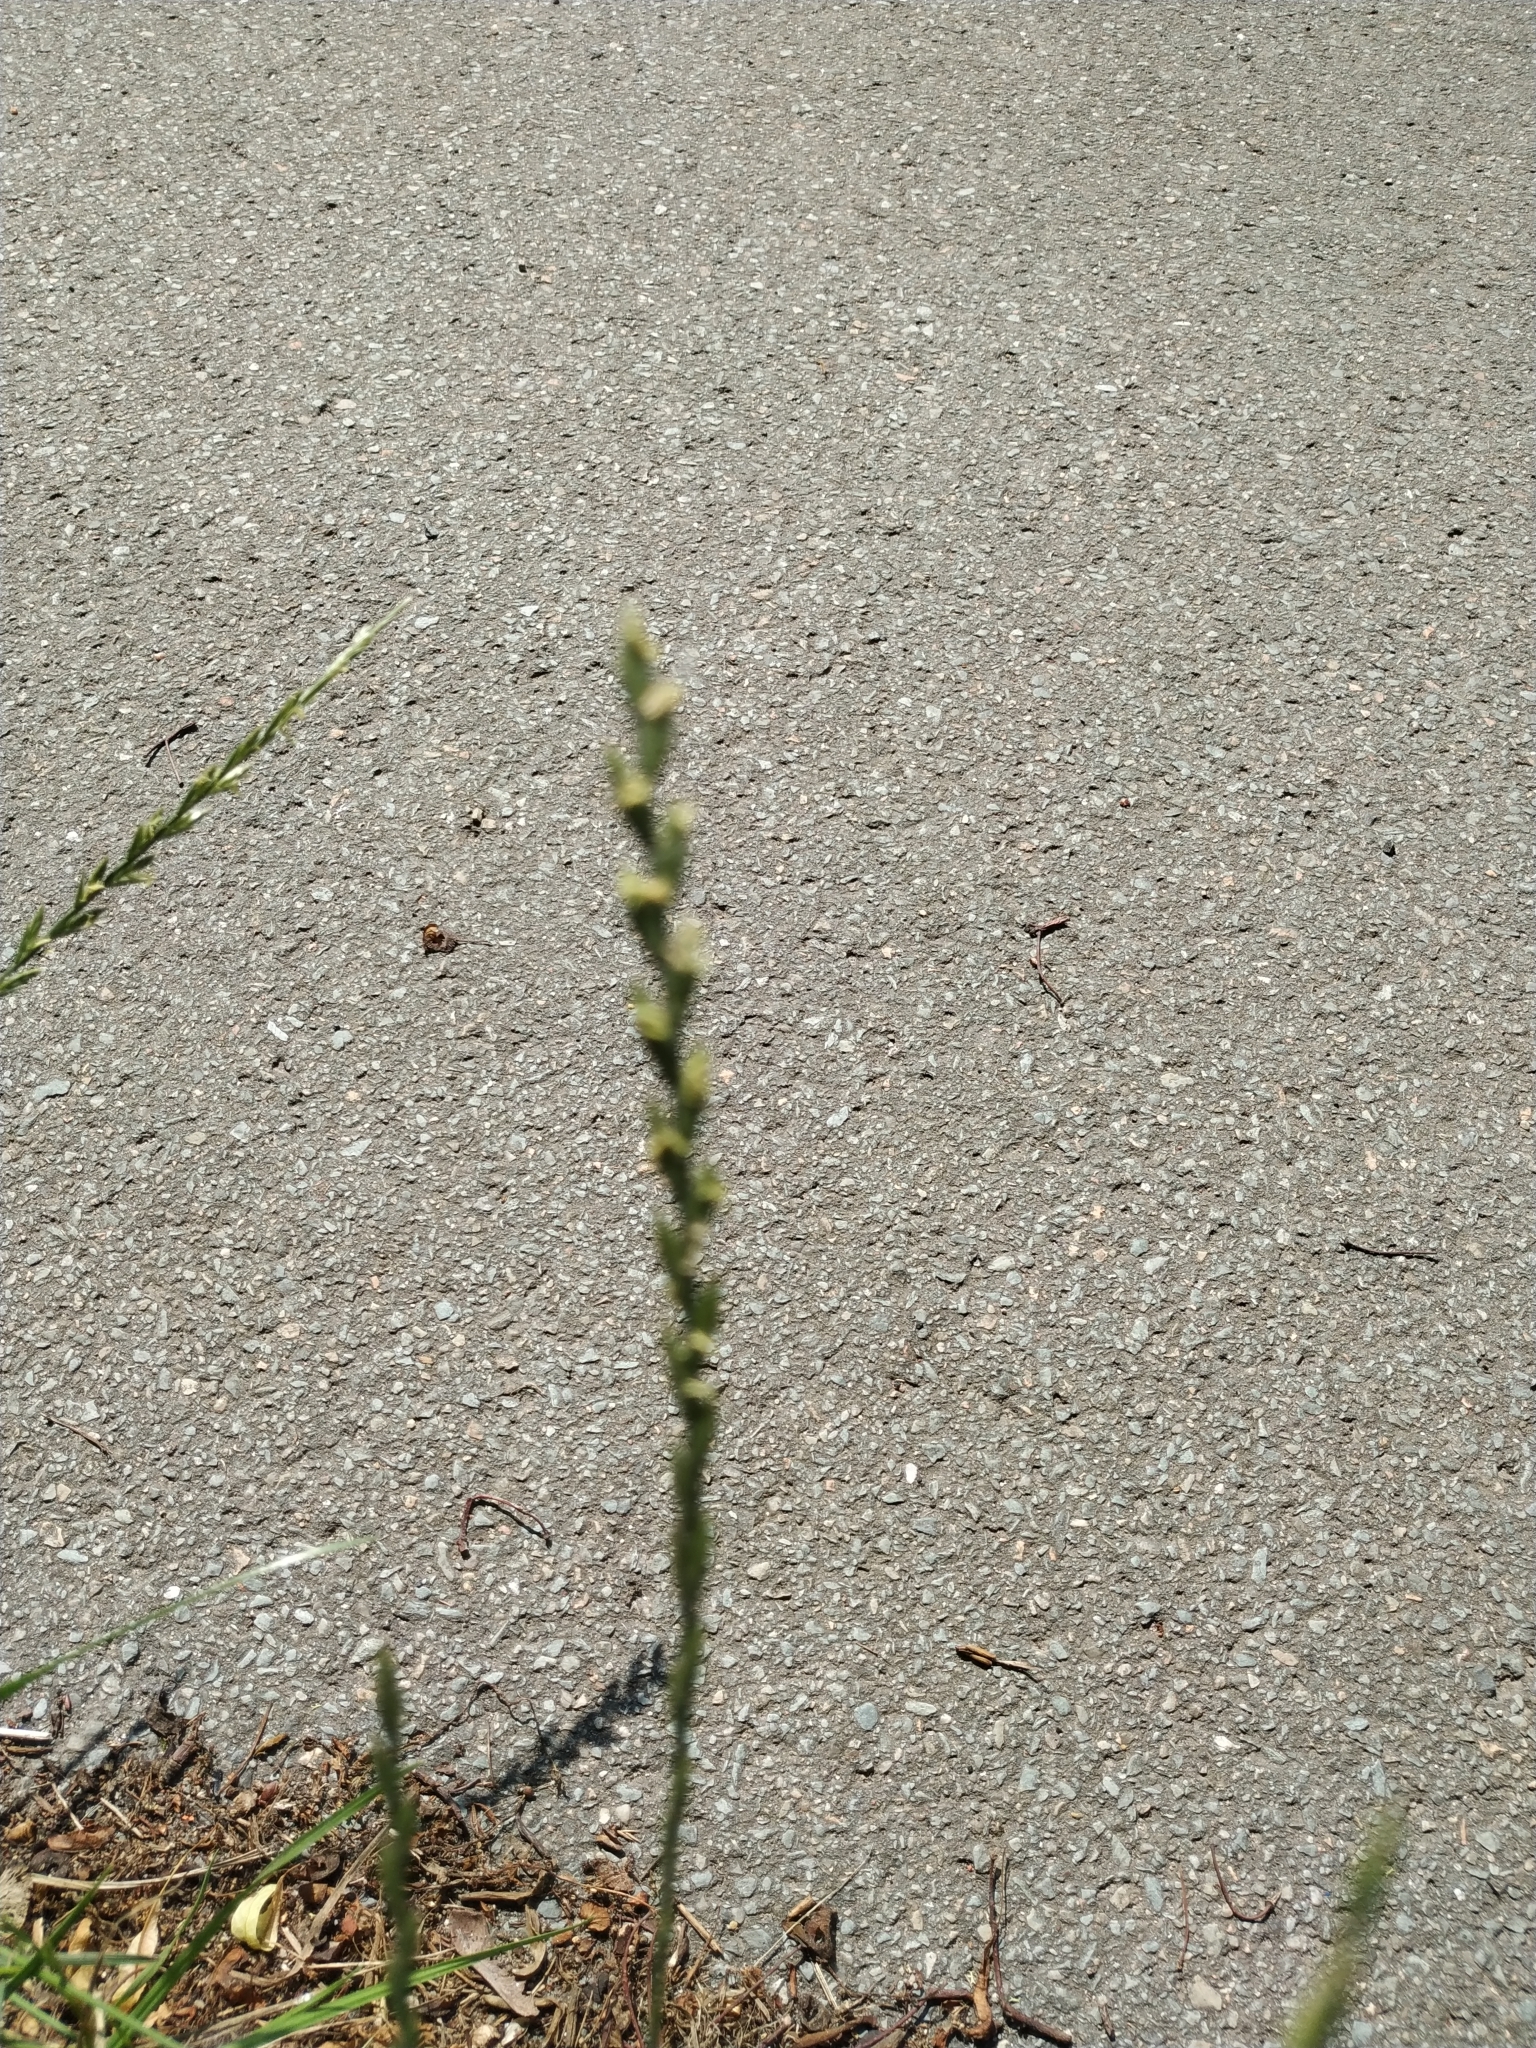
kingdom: Plantae
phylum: Tracheophyta
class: Liliopsida
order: Poales
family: Poaceae
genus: Lolium
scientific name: Lolium perenne
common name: Perennial ryegrass
